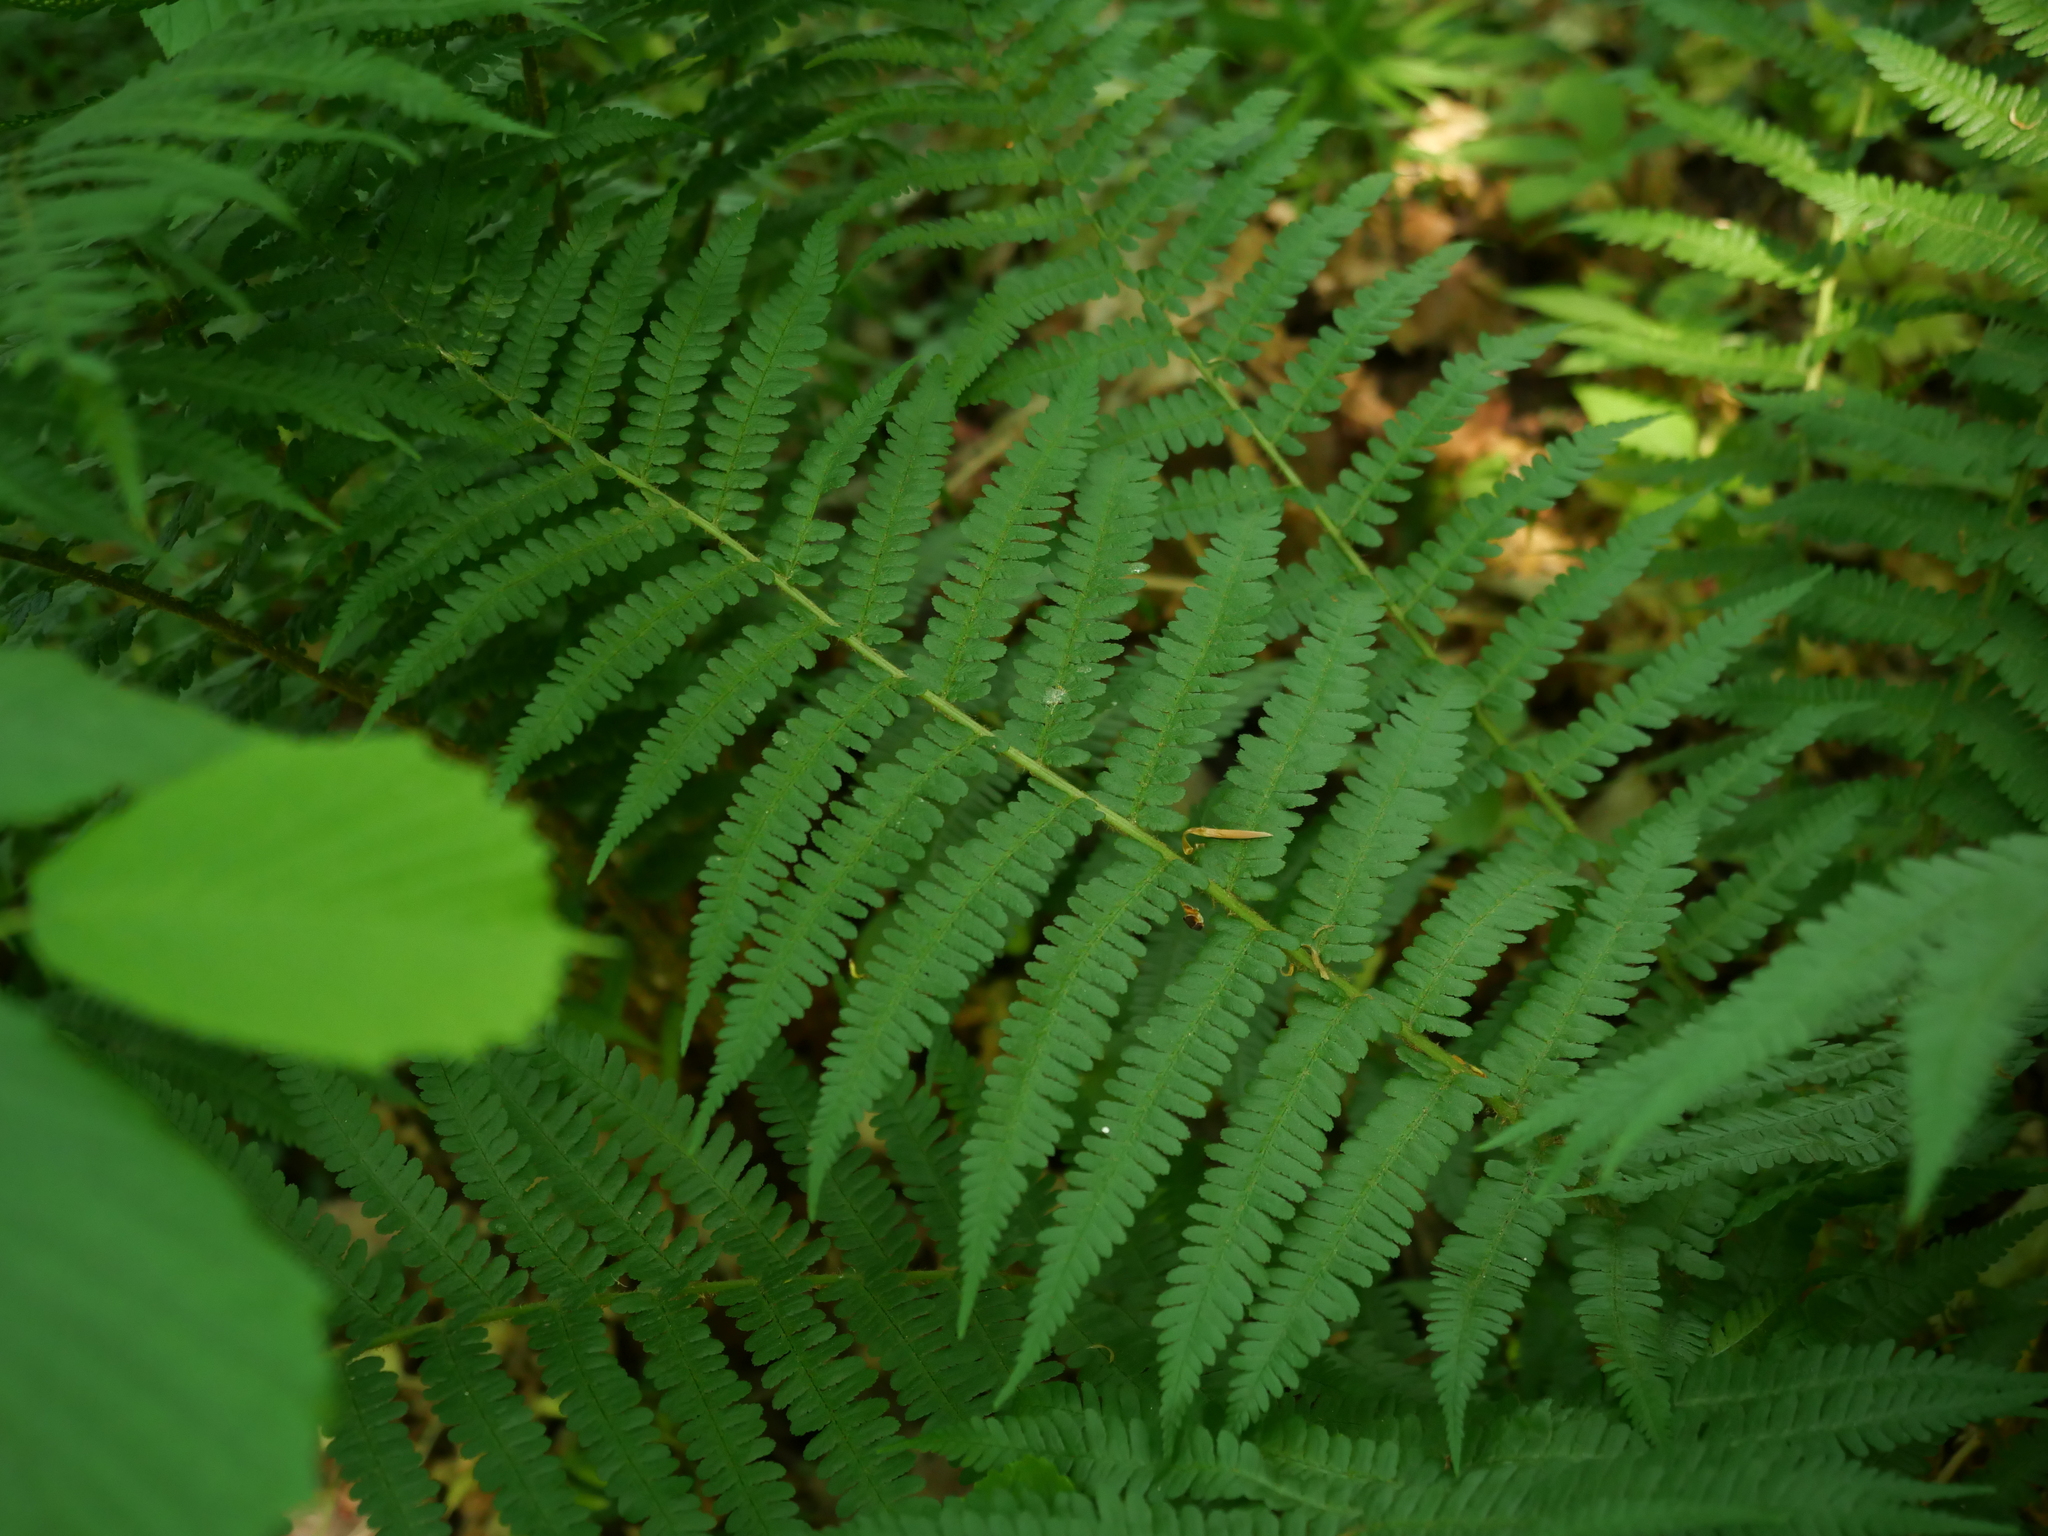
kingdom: Plantae
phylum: Tracheophyta
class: Polypodiopsida
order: Polypodiales
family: Dryopteridaceae
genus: Dryopteris
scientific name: Dryopteris filix-mas
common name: Male fern
